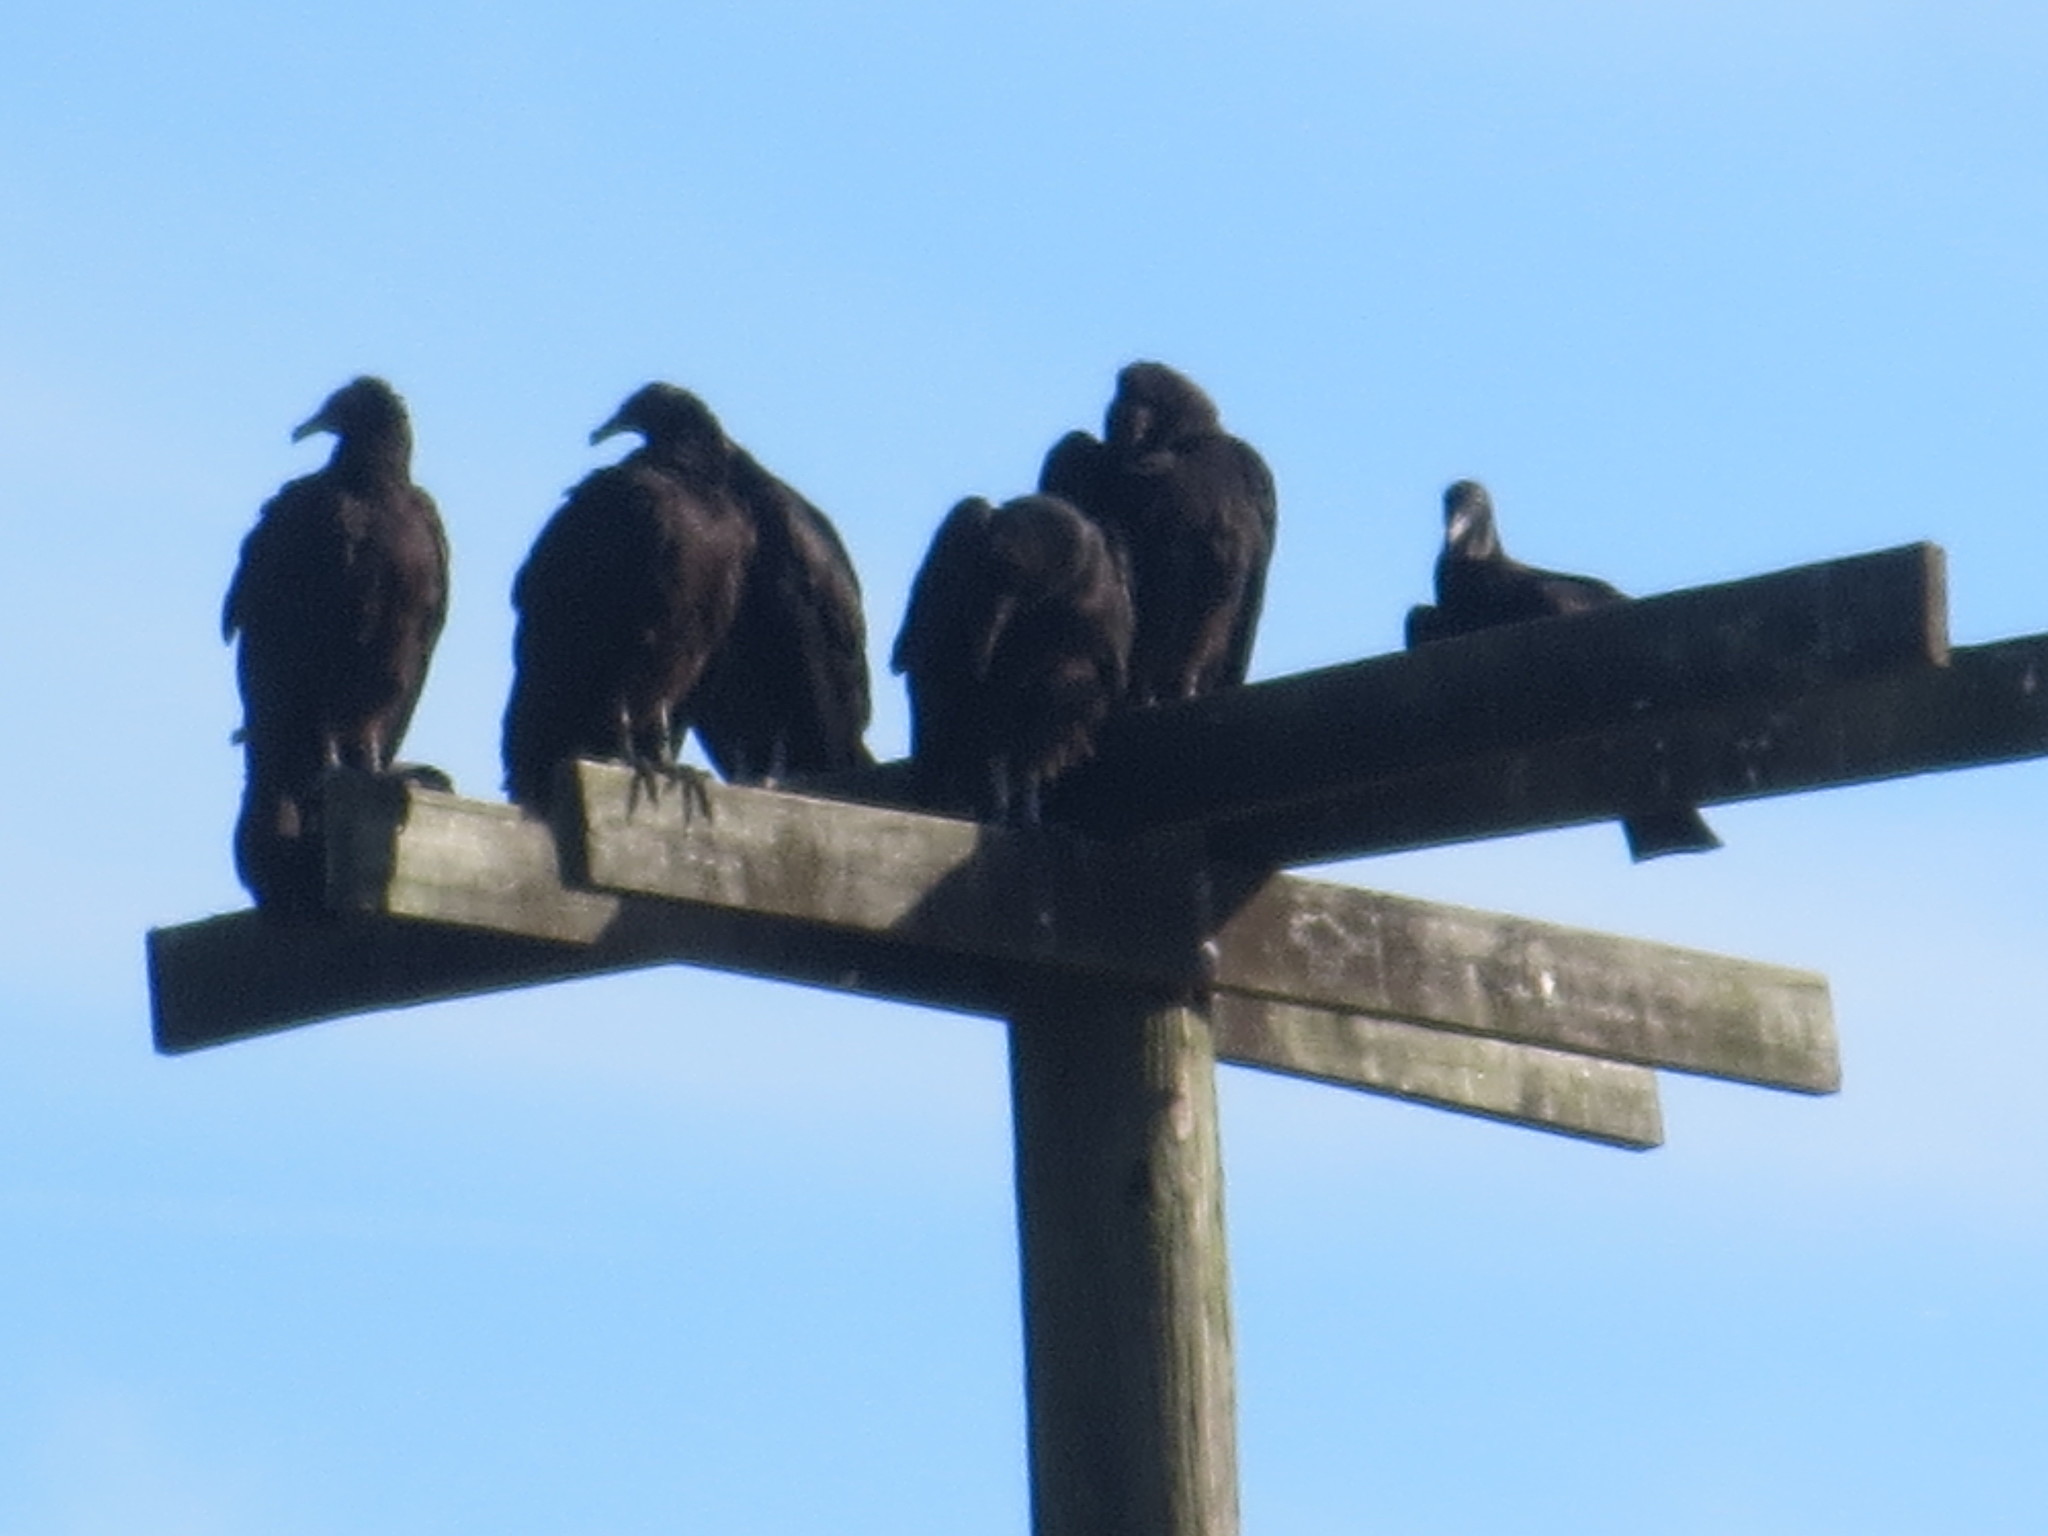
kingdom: Animalia
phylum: Chordata
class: Aves
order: Accipitriformes
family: Cathartidae
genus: Coragyps
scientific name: Coragyps atratus
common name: Black vulture
